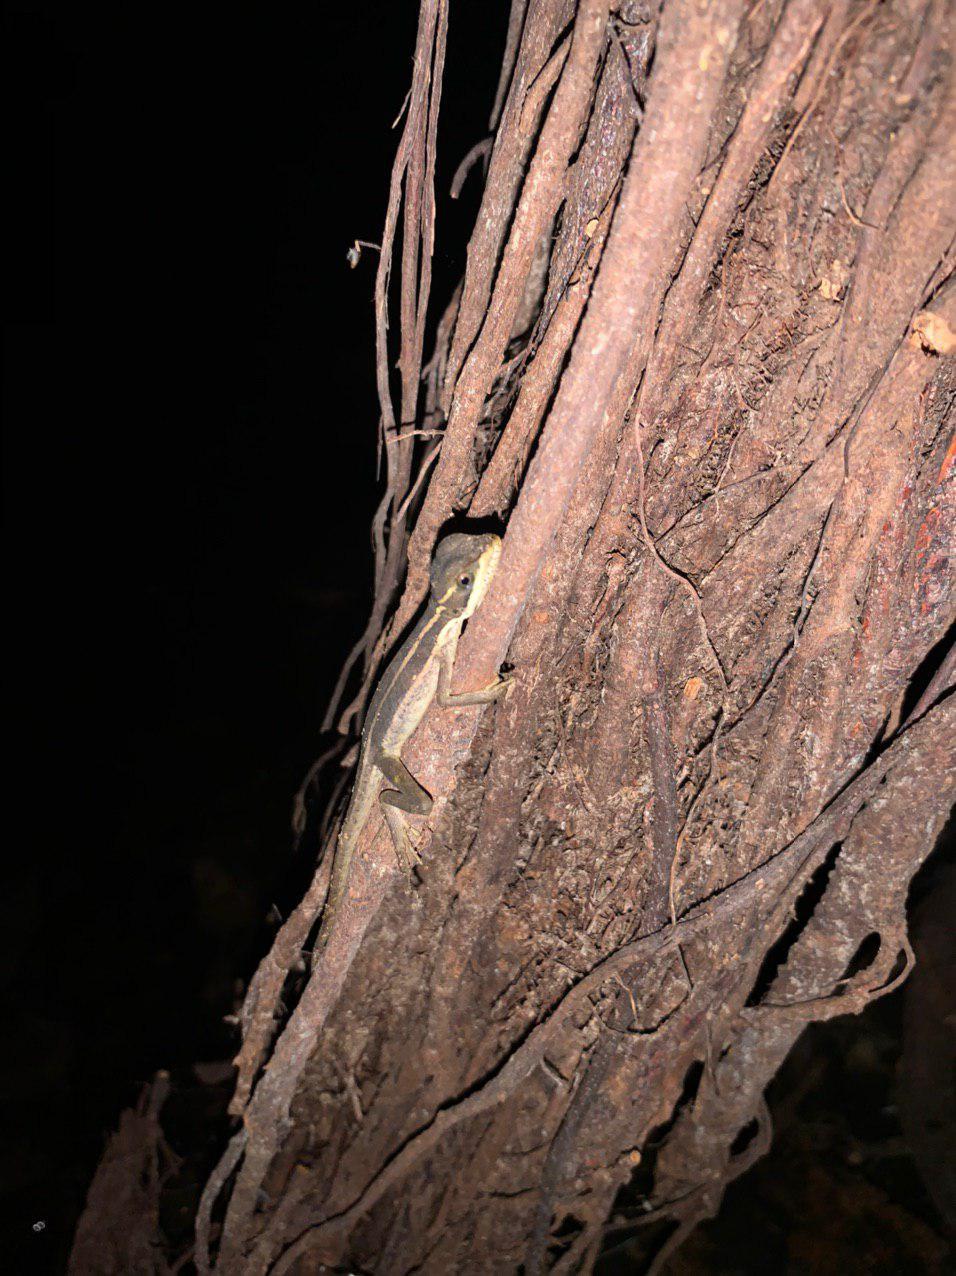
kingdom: Animalia
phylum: Chordata
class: Squamata
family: Corytophanidae
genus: Basiliscus
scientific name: Basiliscus vittatus
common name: Brown basilisk
